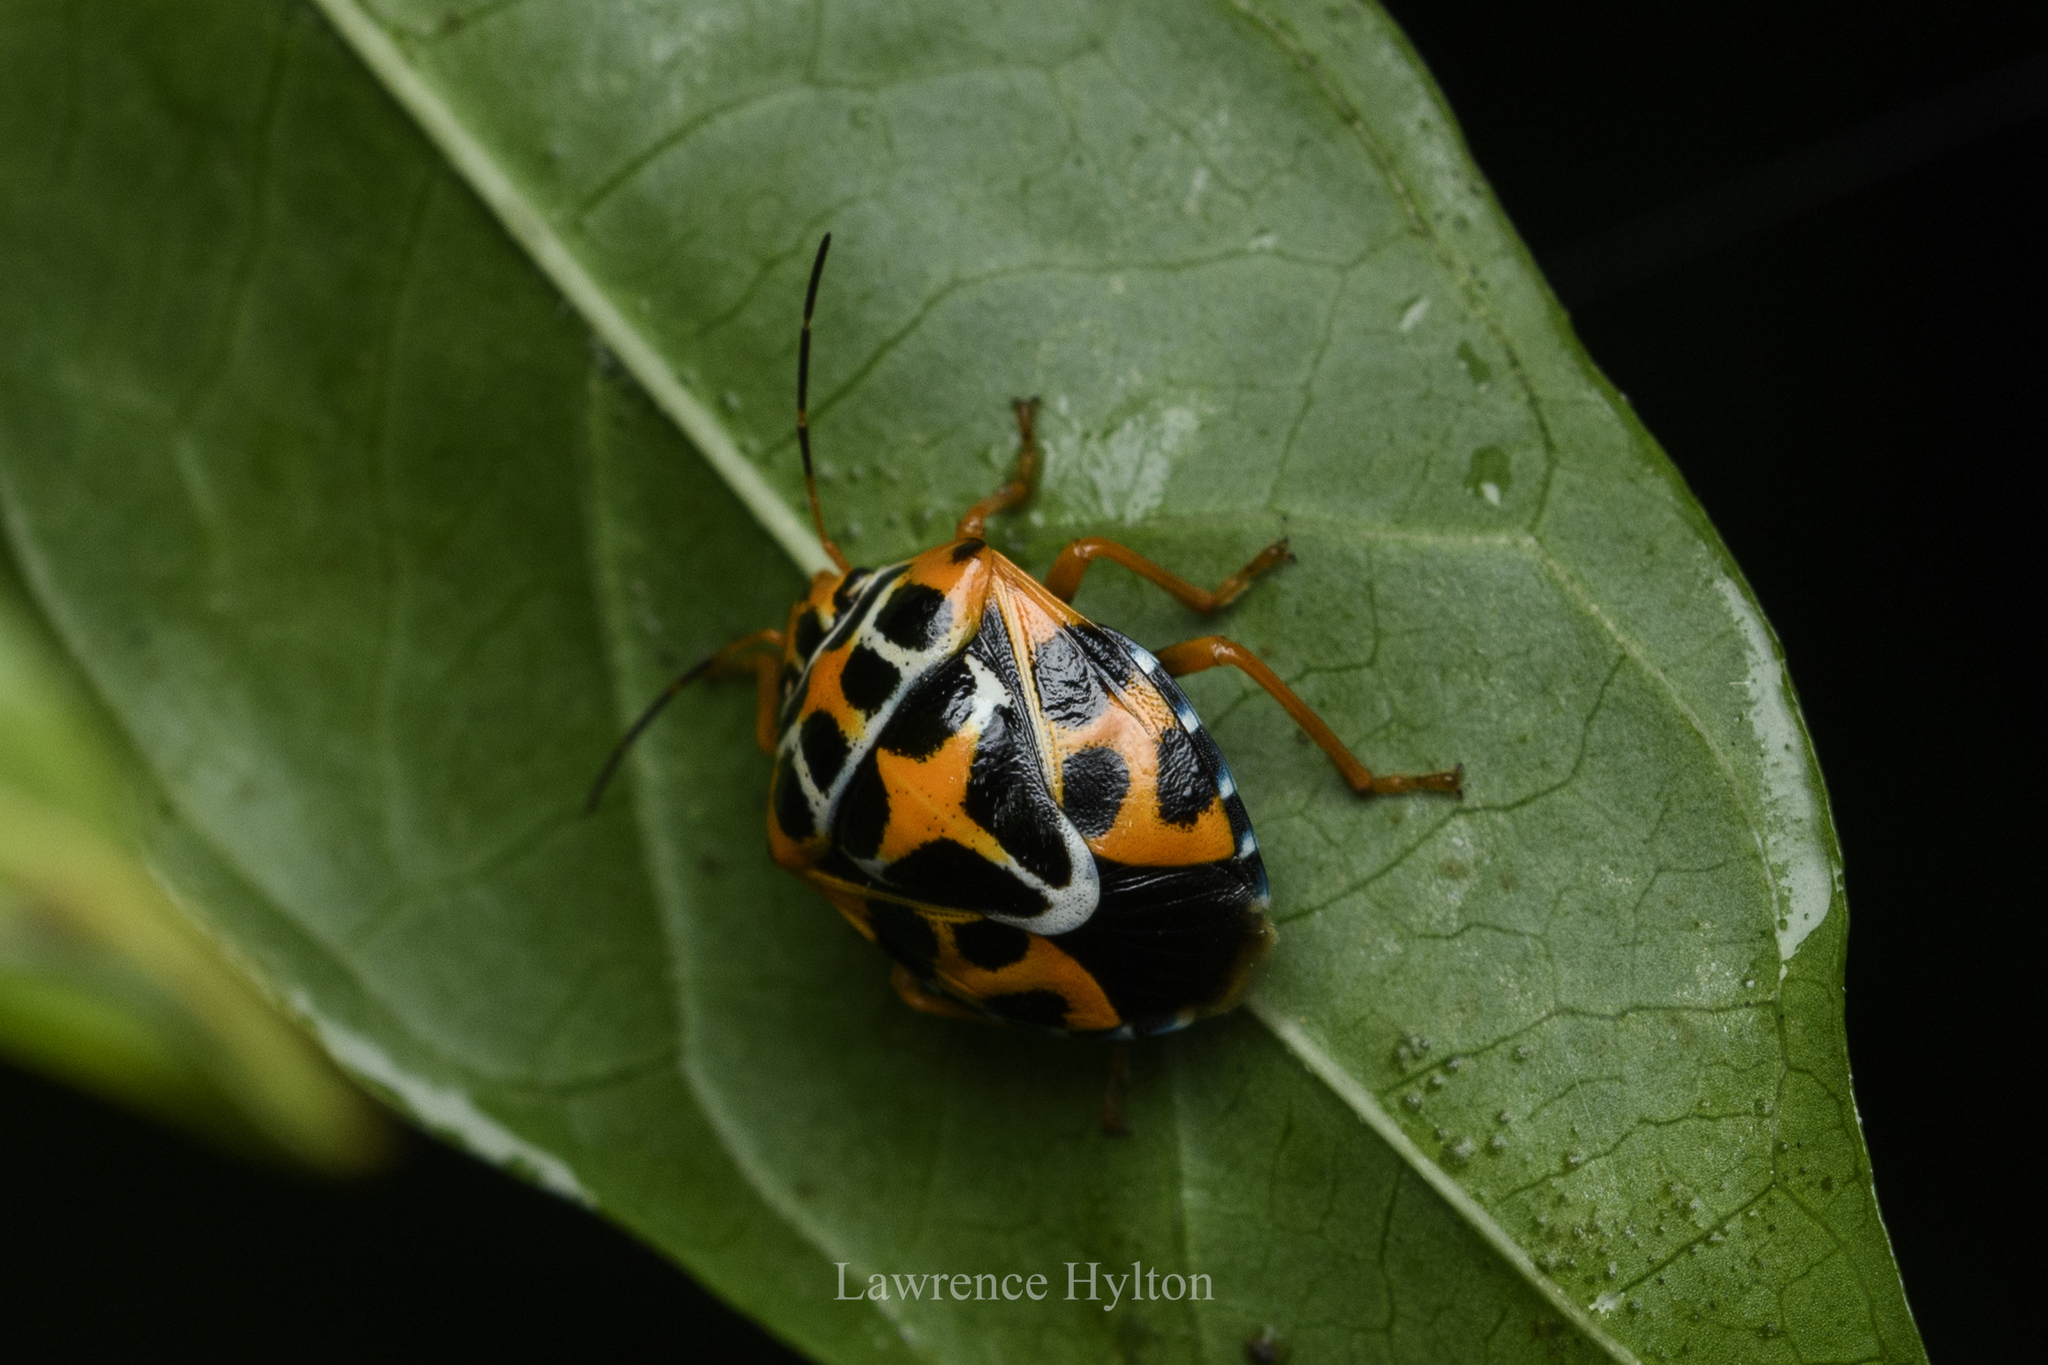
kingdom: Animalia
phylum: Arthropoda
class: Insecta
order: Hemiptera
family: Pentatomidae
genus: Antestiopsis
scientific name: Antestiopsis
